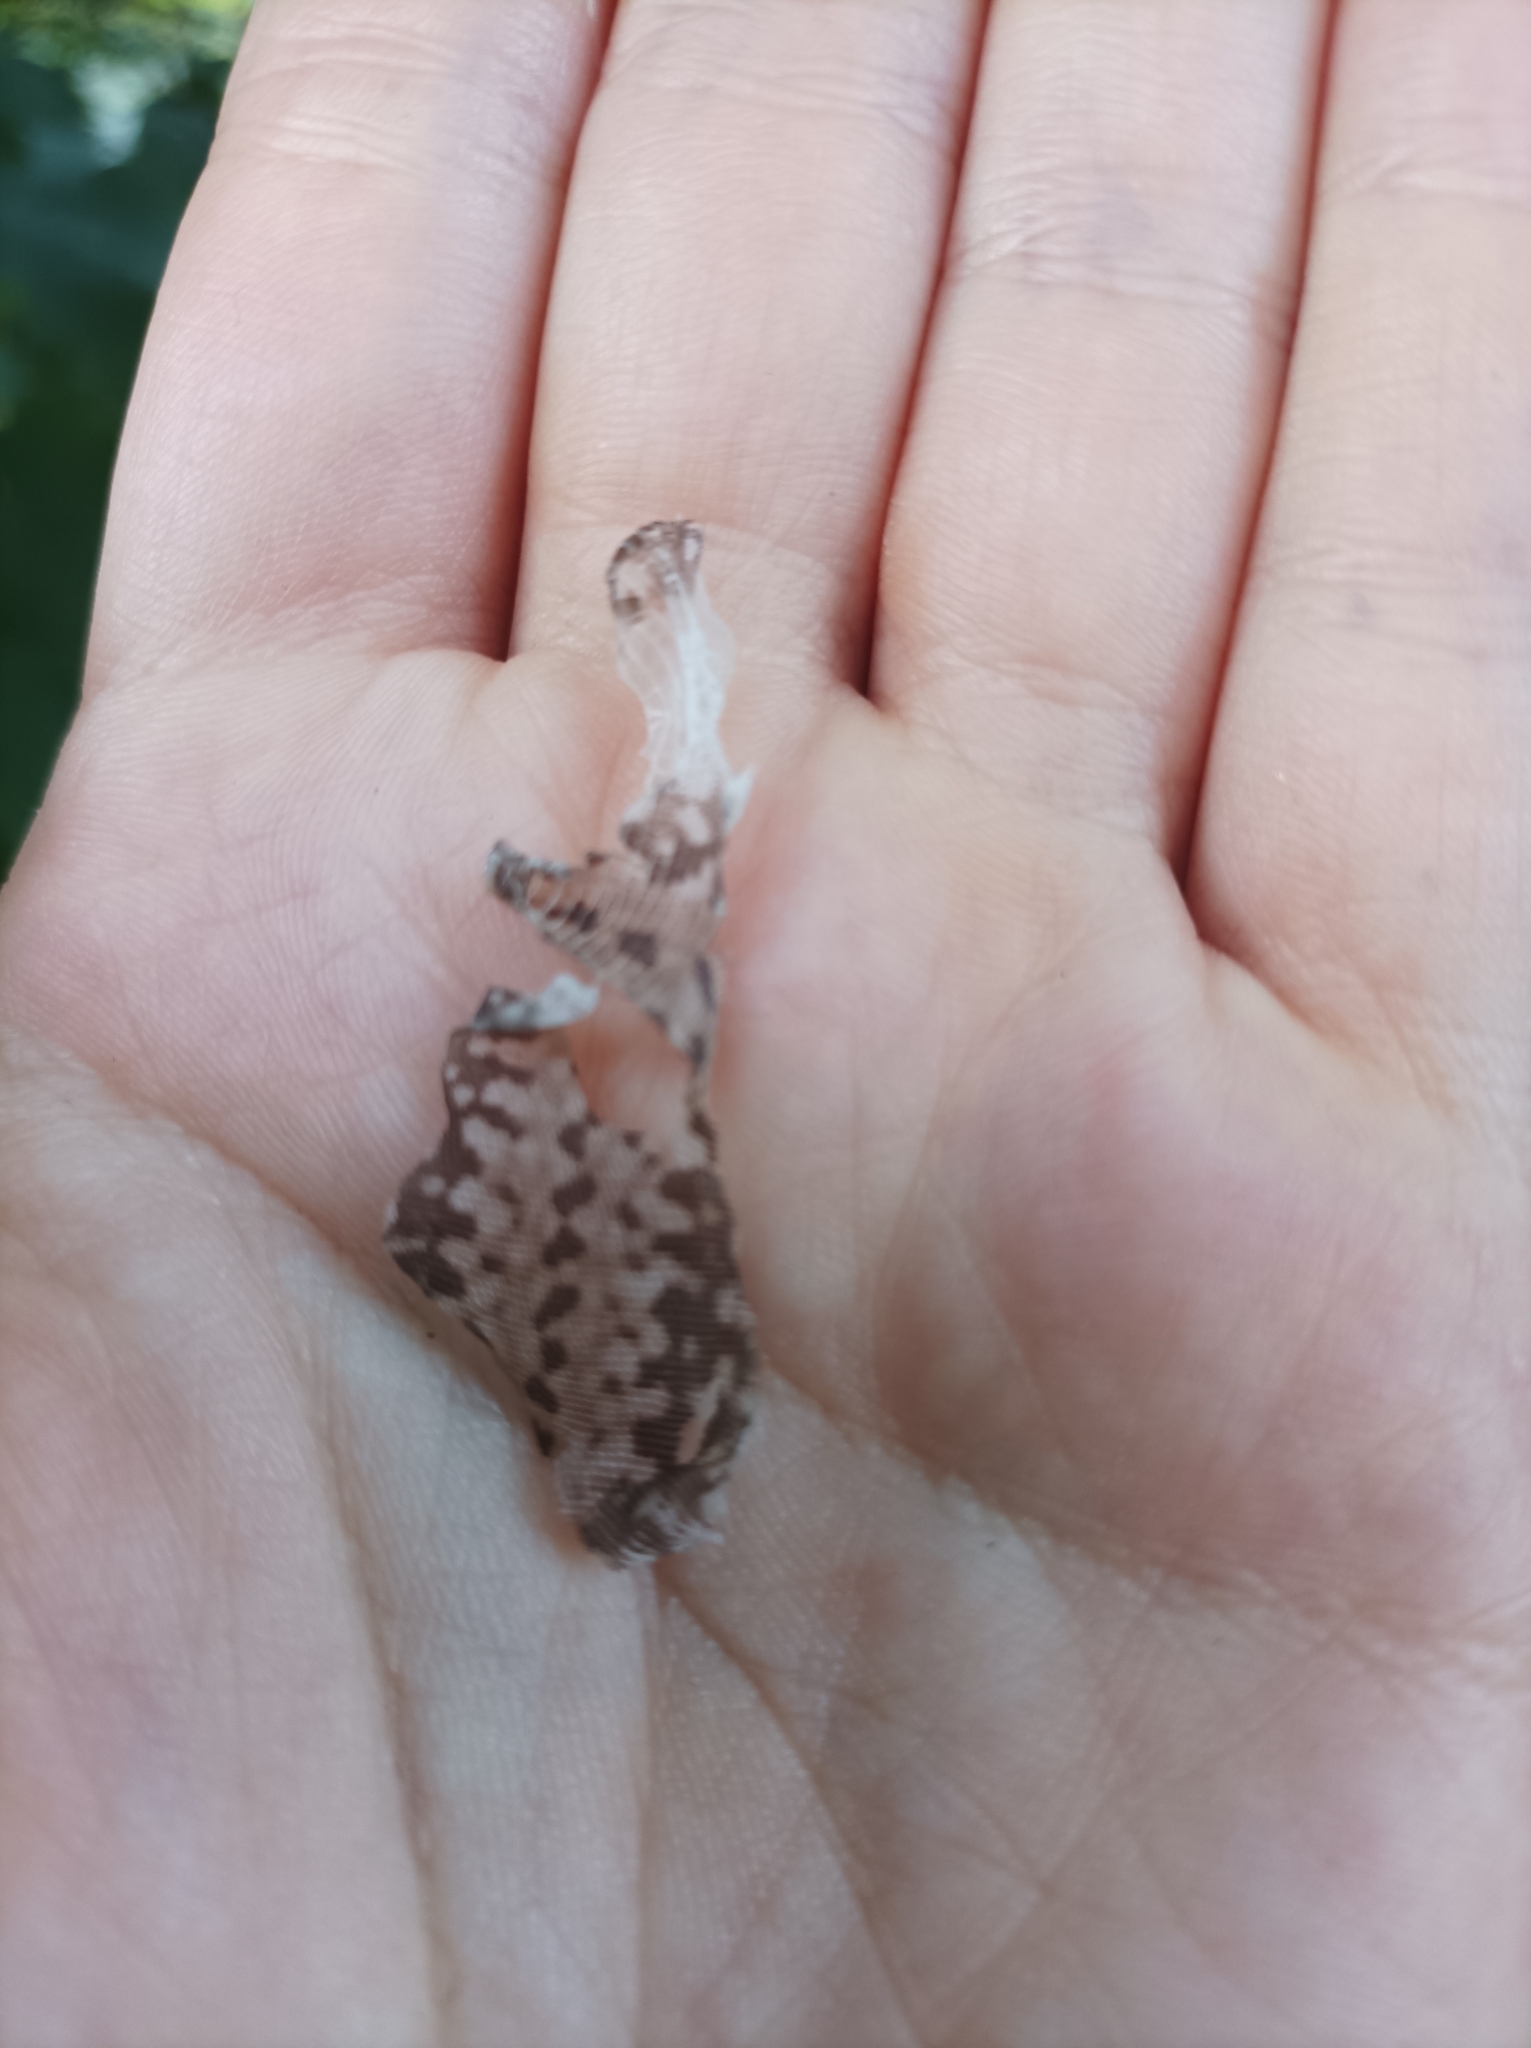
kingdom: Animalia
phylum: Chordata
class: Squamata
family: Lacertidae
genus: Podarcis
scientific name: Podarcis muralis
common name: Common wall lizard
